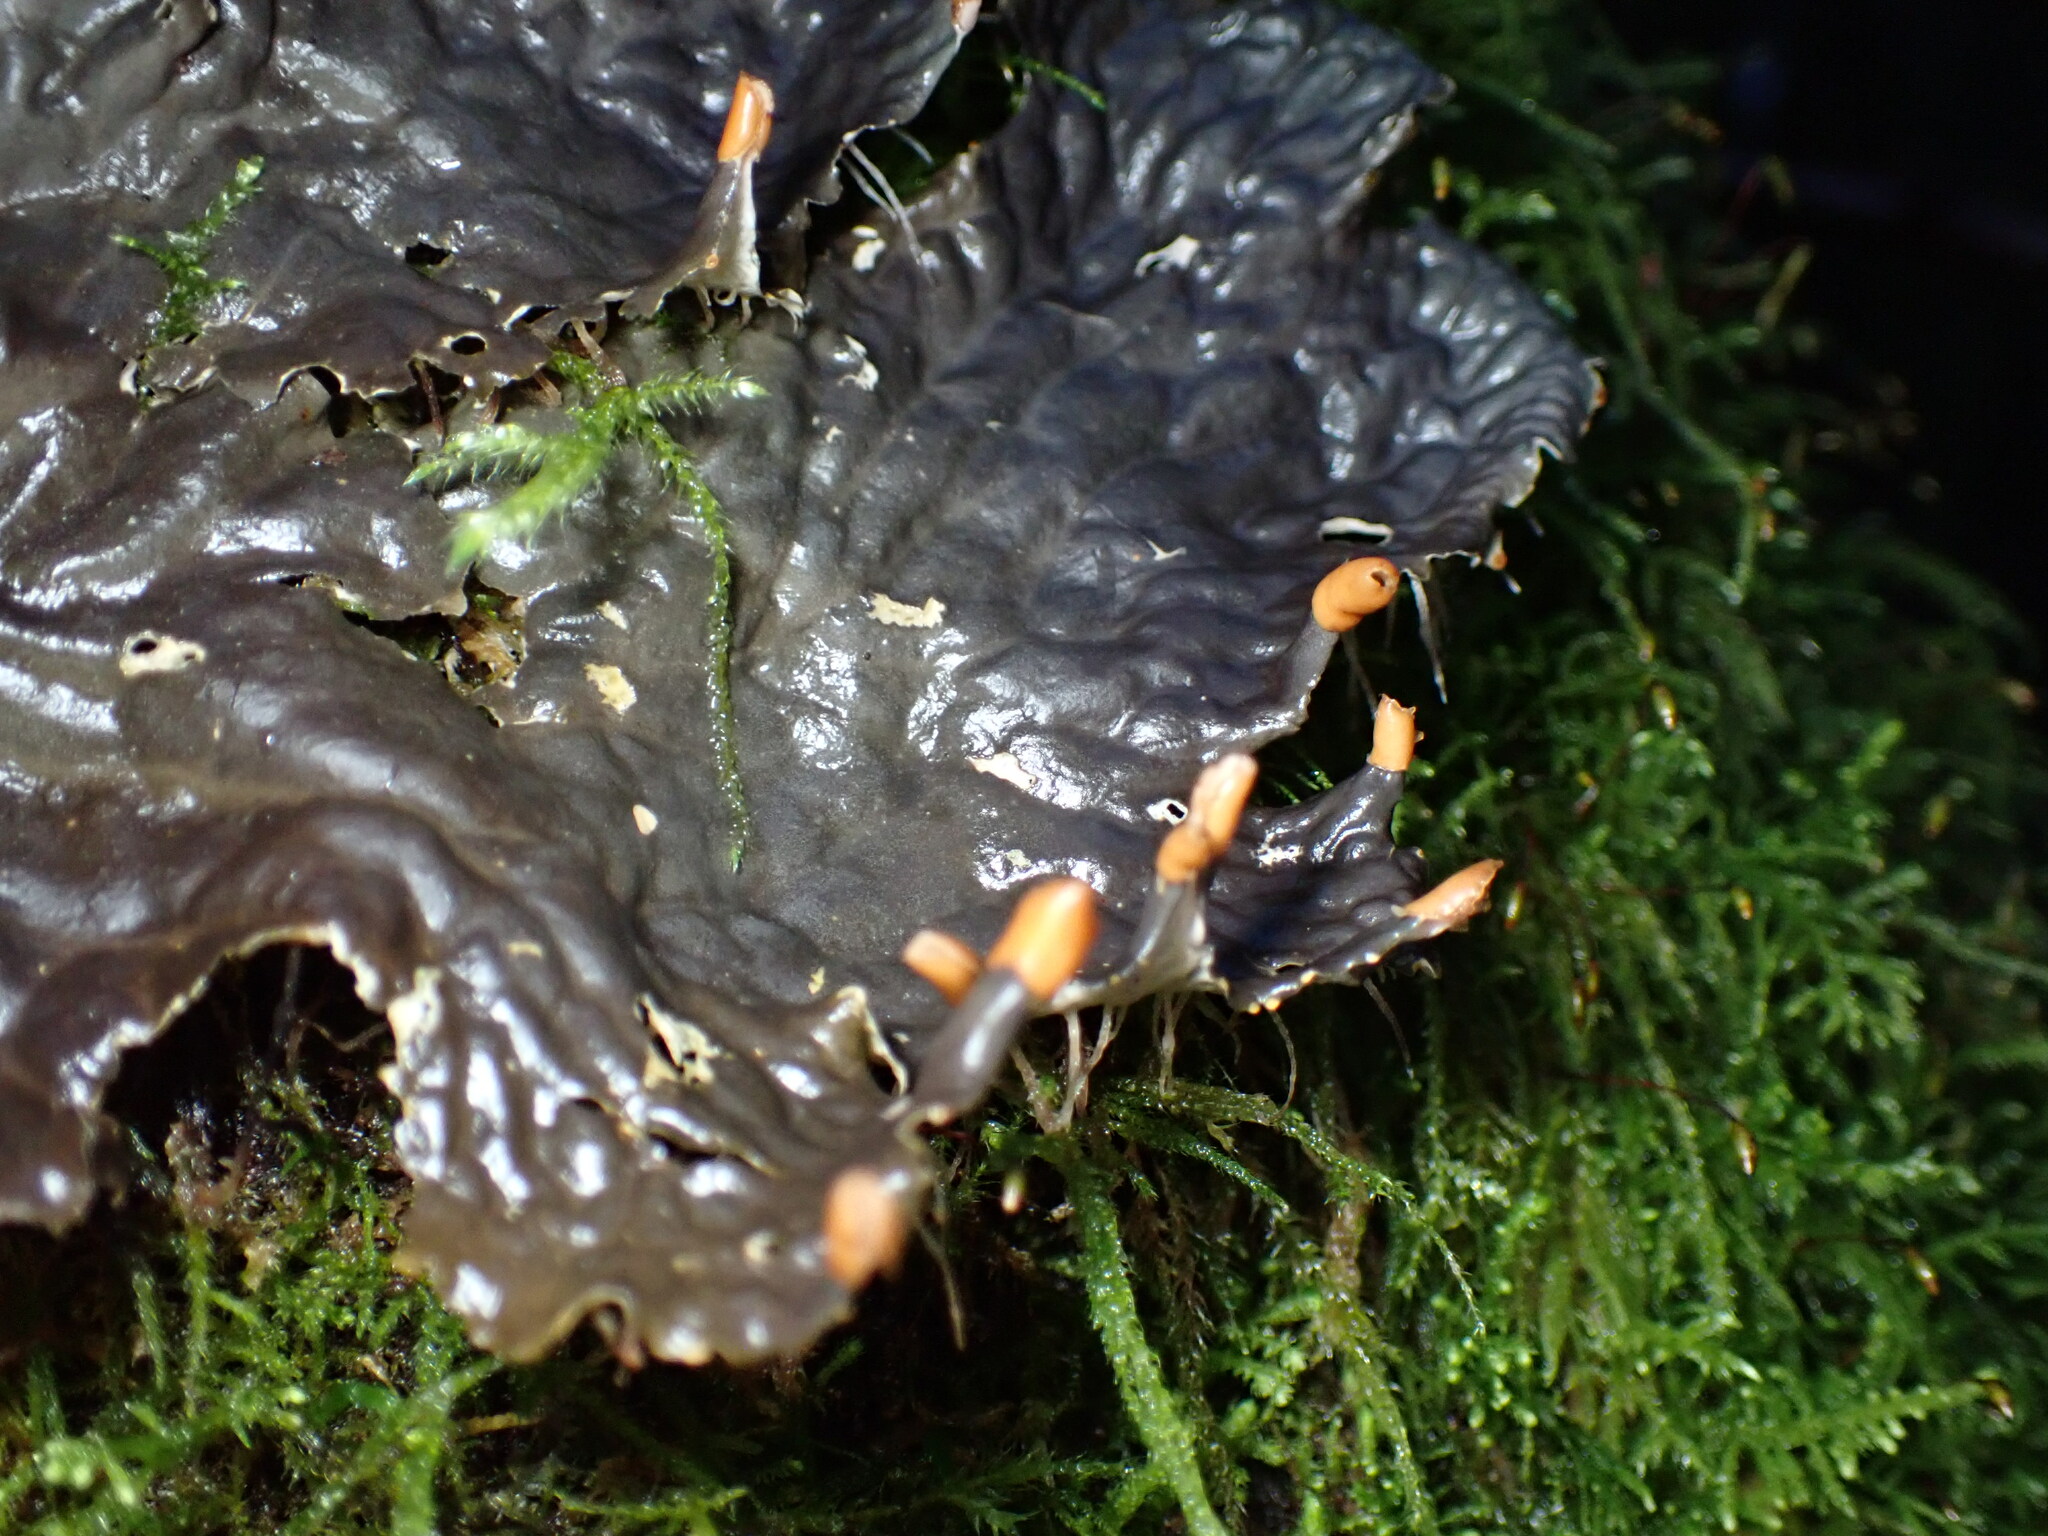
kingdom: Fungi
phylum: Ascomycota
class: Lecanoromycetes
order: Peltigerales
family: Peltigeraceae
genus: Peltigera
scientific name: Peltigera membranacea
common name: Membranous pelt lichen
